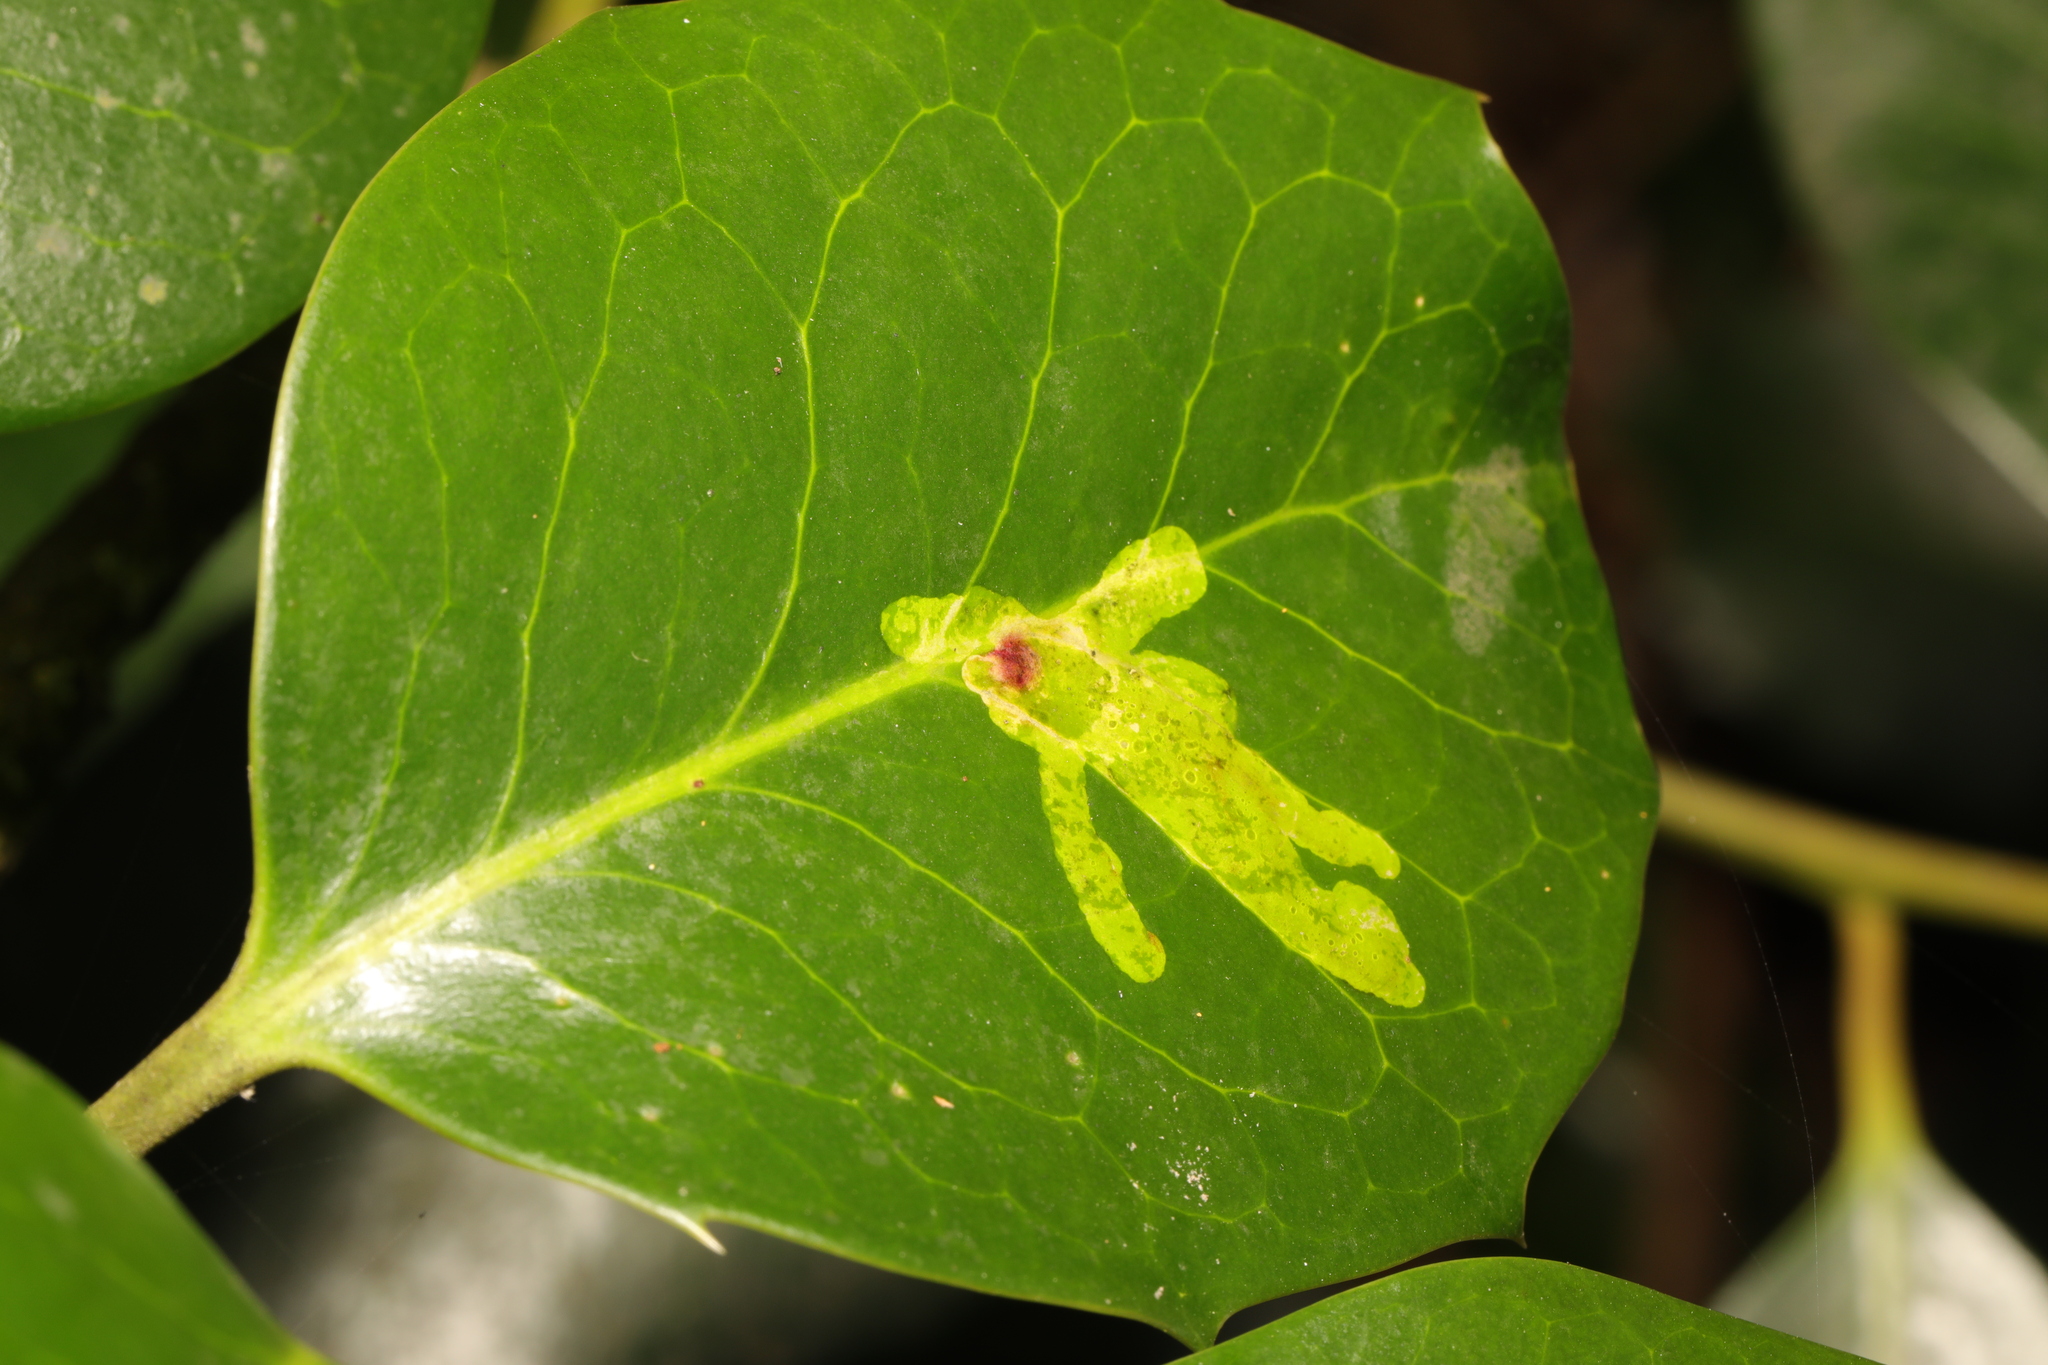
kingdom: Animalia
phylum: Arthropoda
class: Insecta
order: Diptera
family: Agromyzidae
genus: Phytomyza
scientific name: Phytomyza ilicis
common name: Holly leafminer
